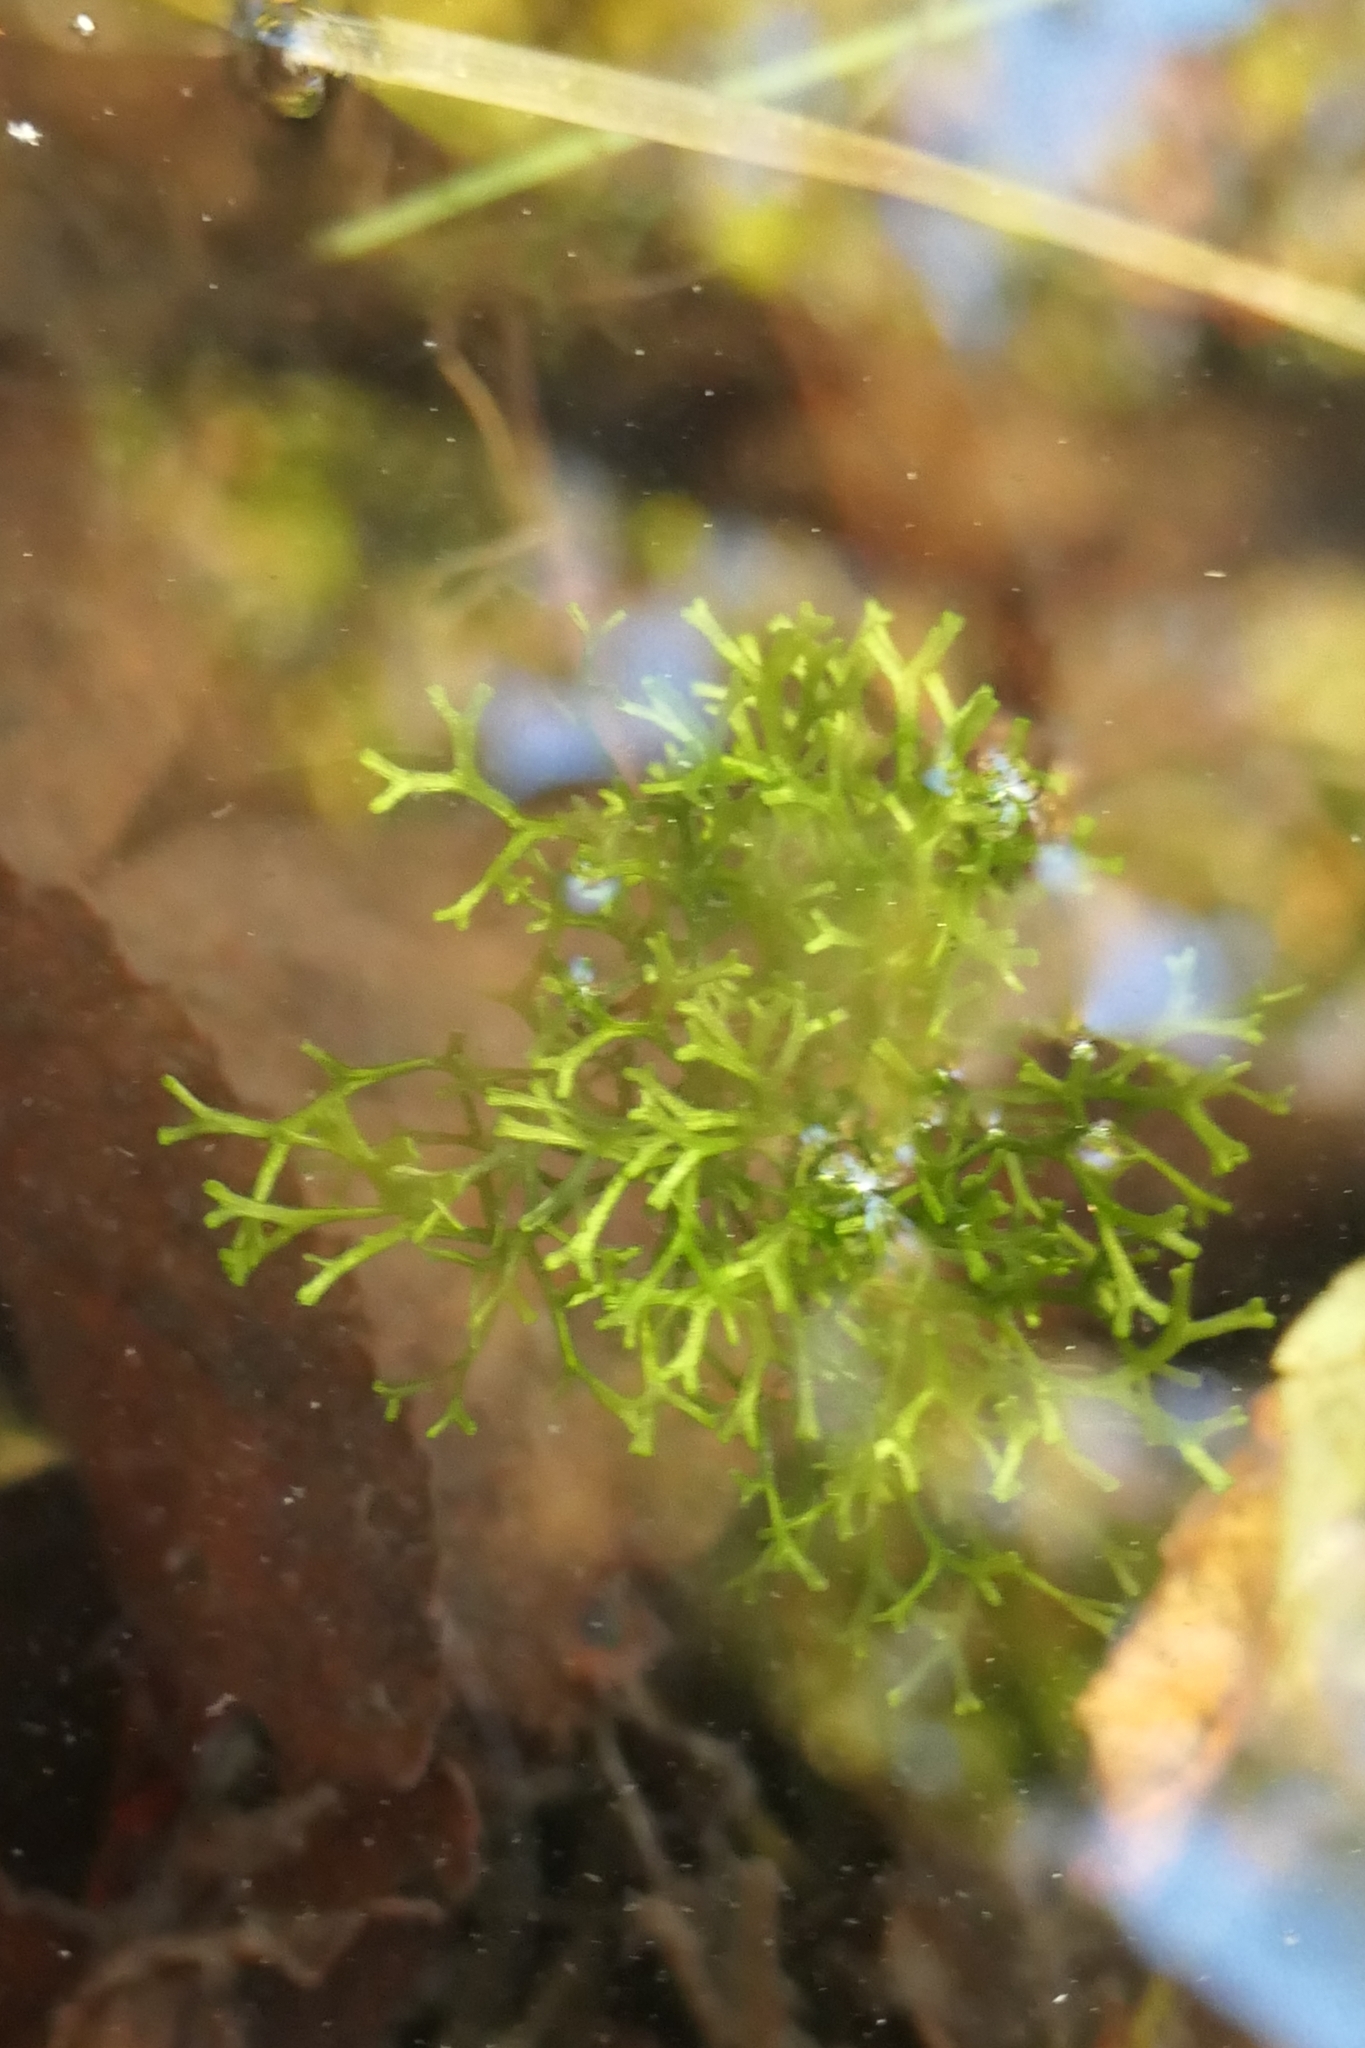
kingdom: Plantae
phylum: Marchantiophyta
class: Marchantiopsida
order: Marchantiales
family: Ricciaceae
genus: Riccia
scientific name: Riccia fluitans
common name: Floating crystalwort
